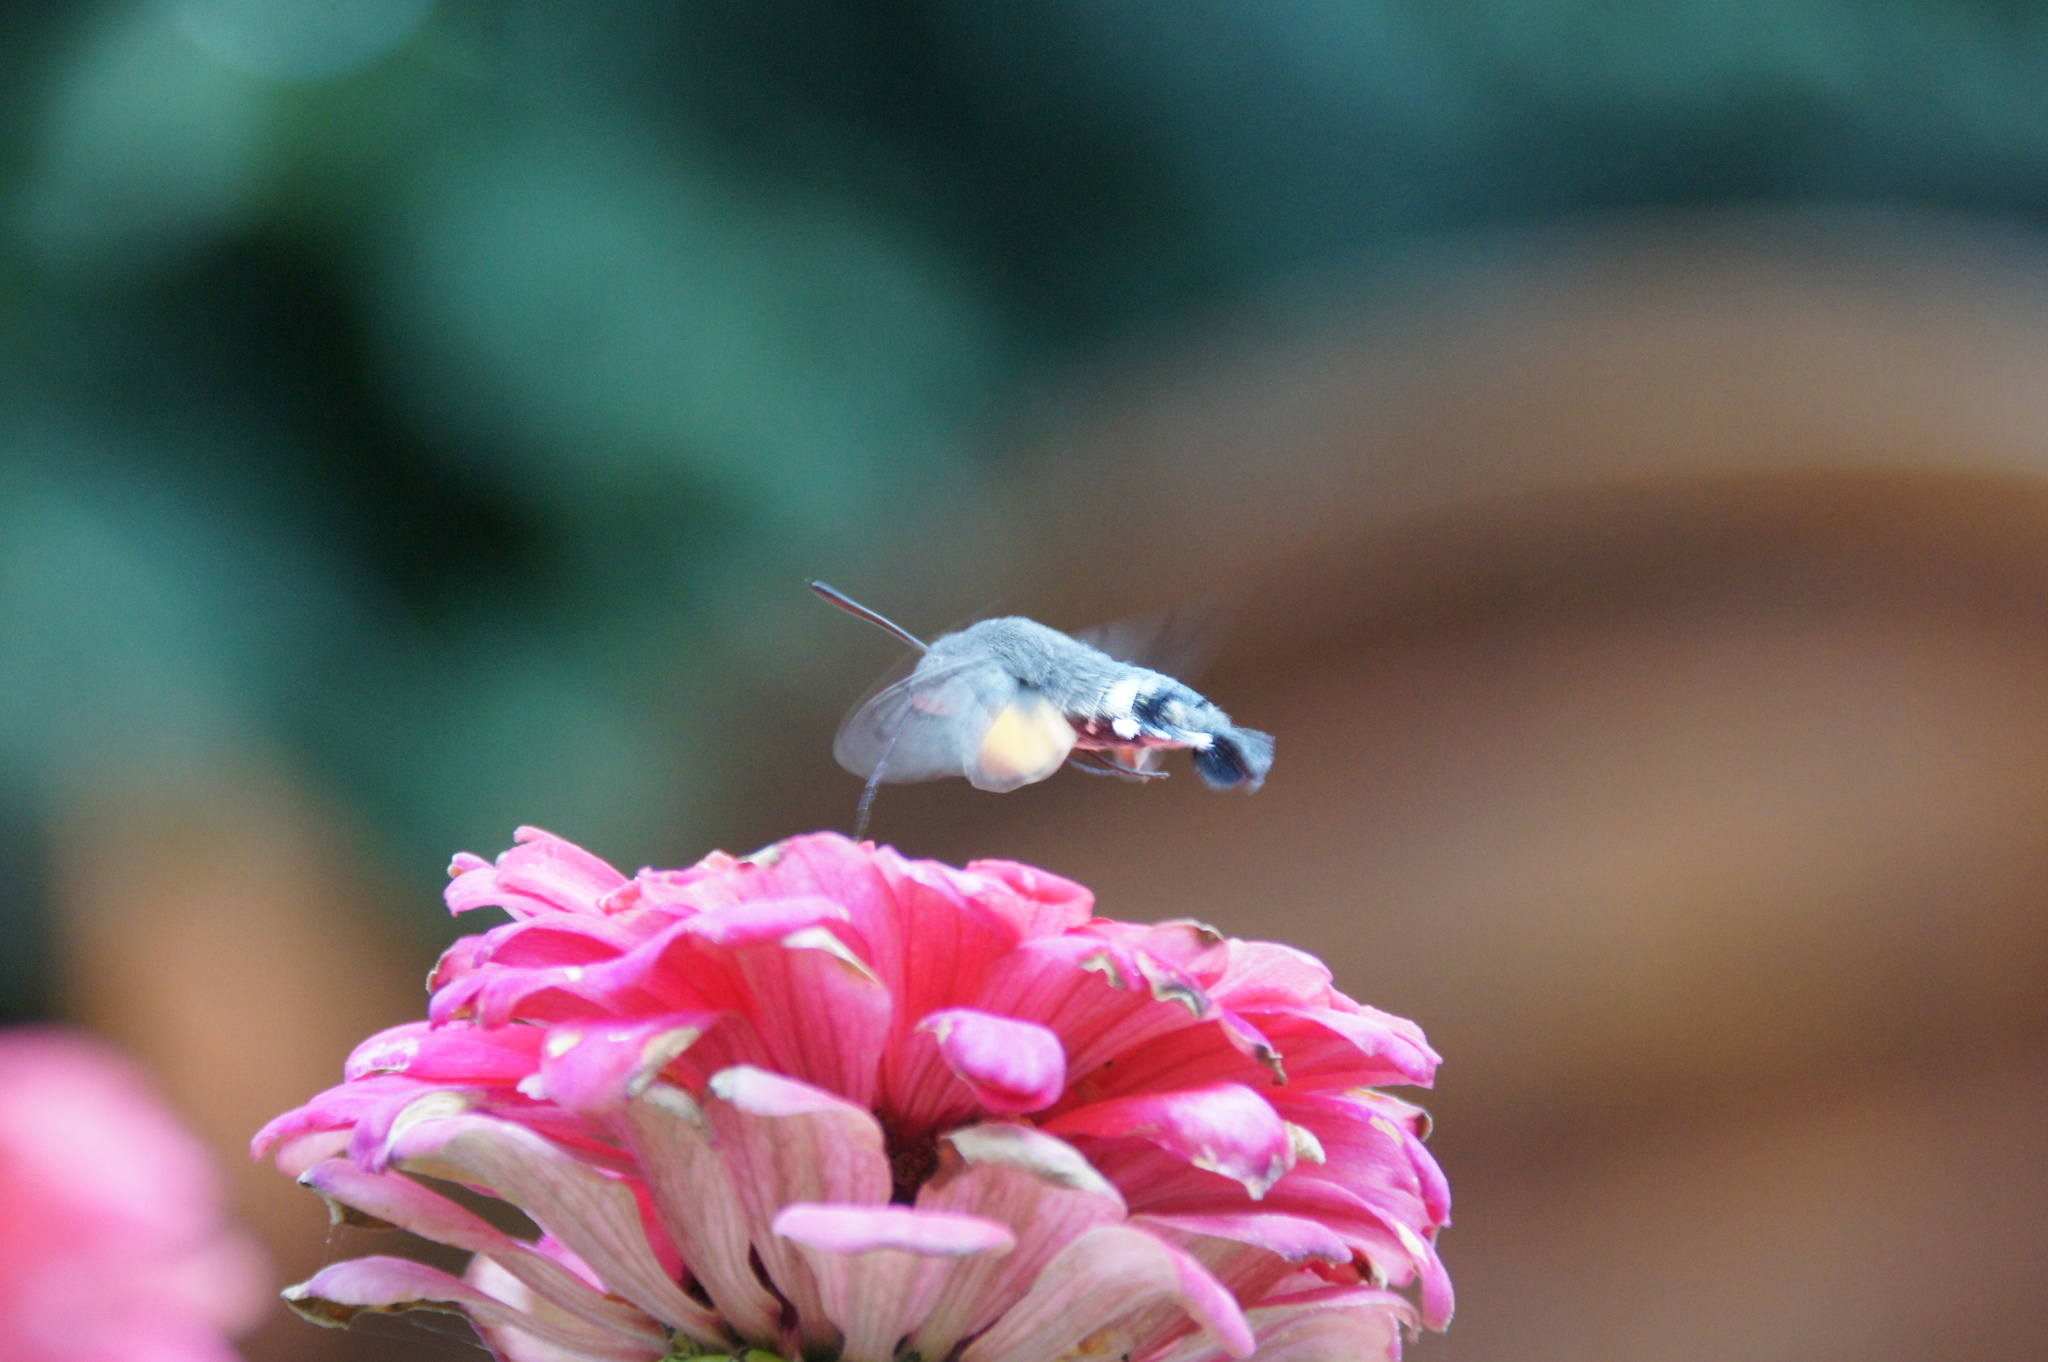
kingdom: Animalia
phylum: Arthropoda
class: Insecta
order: Lepidoptera
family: Sphingidae
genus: Macroglossum
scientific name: Macroglossum stellatarum
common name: Humming-bird hawk-moth
